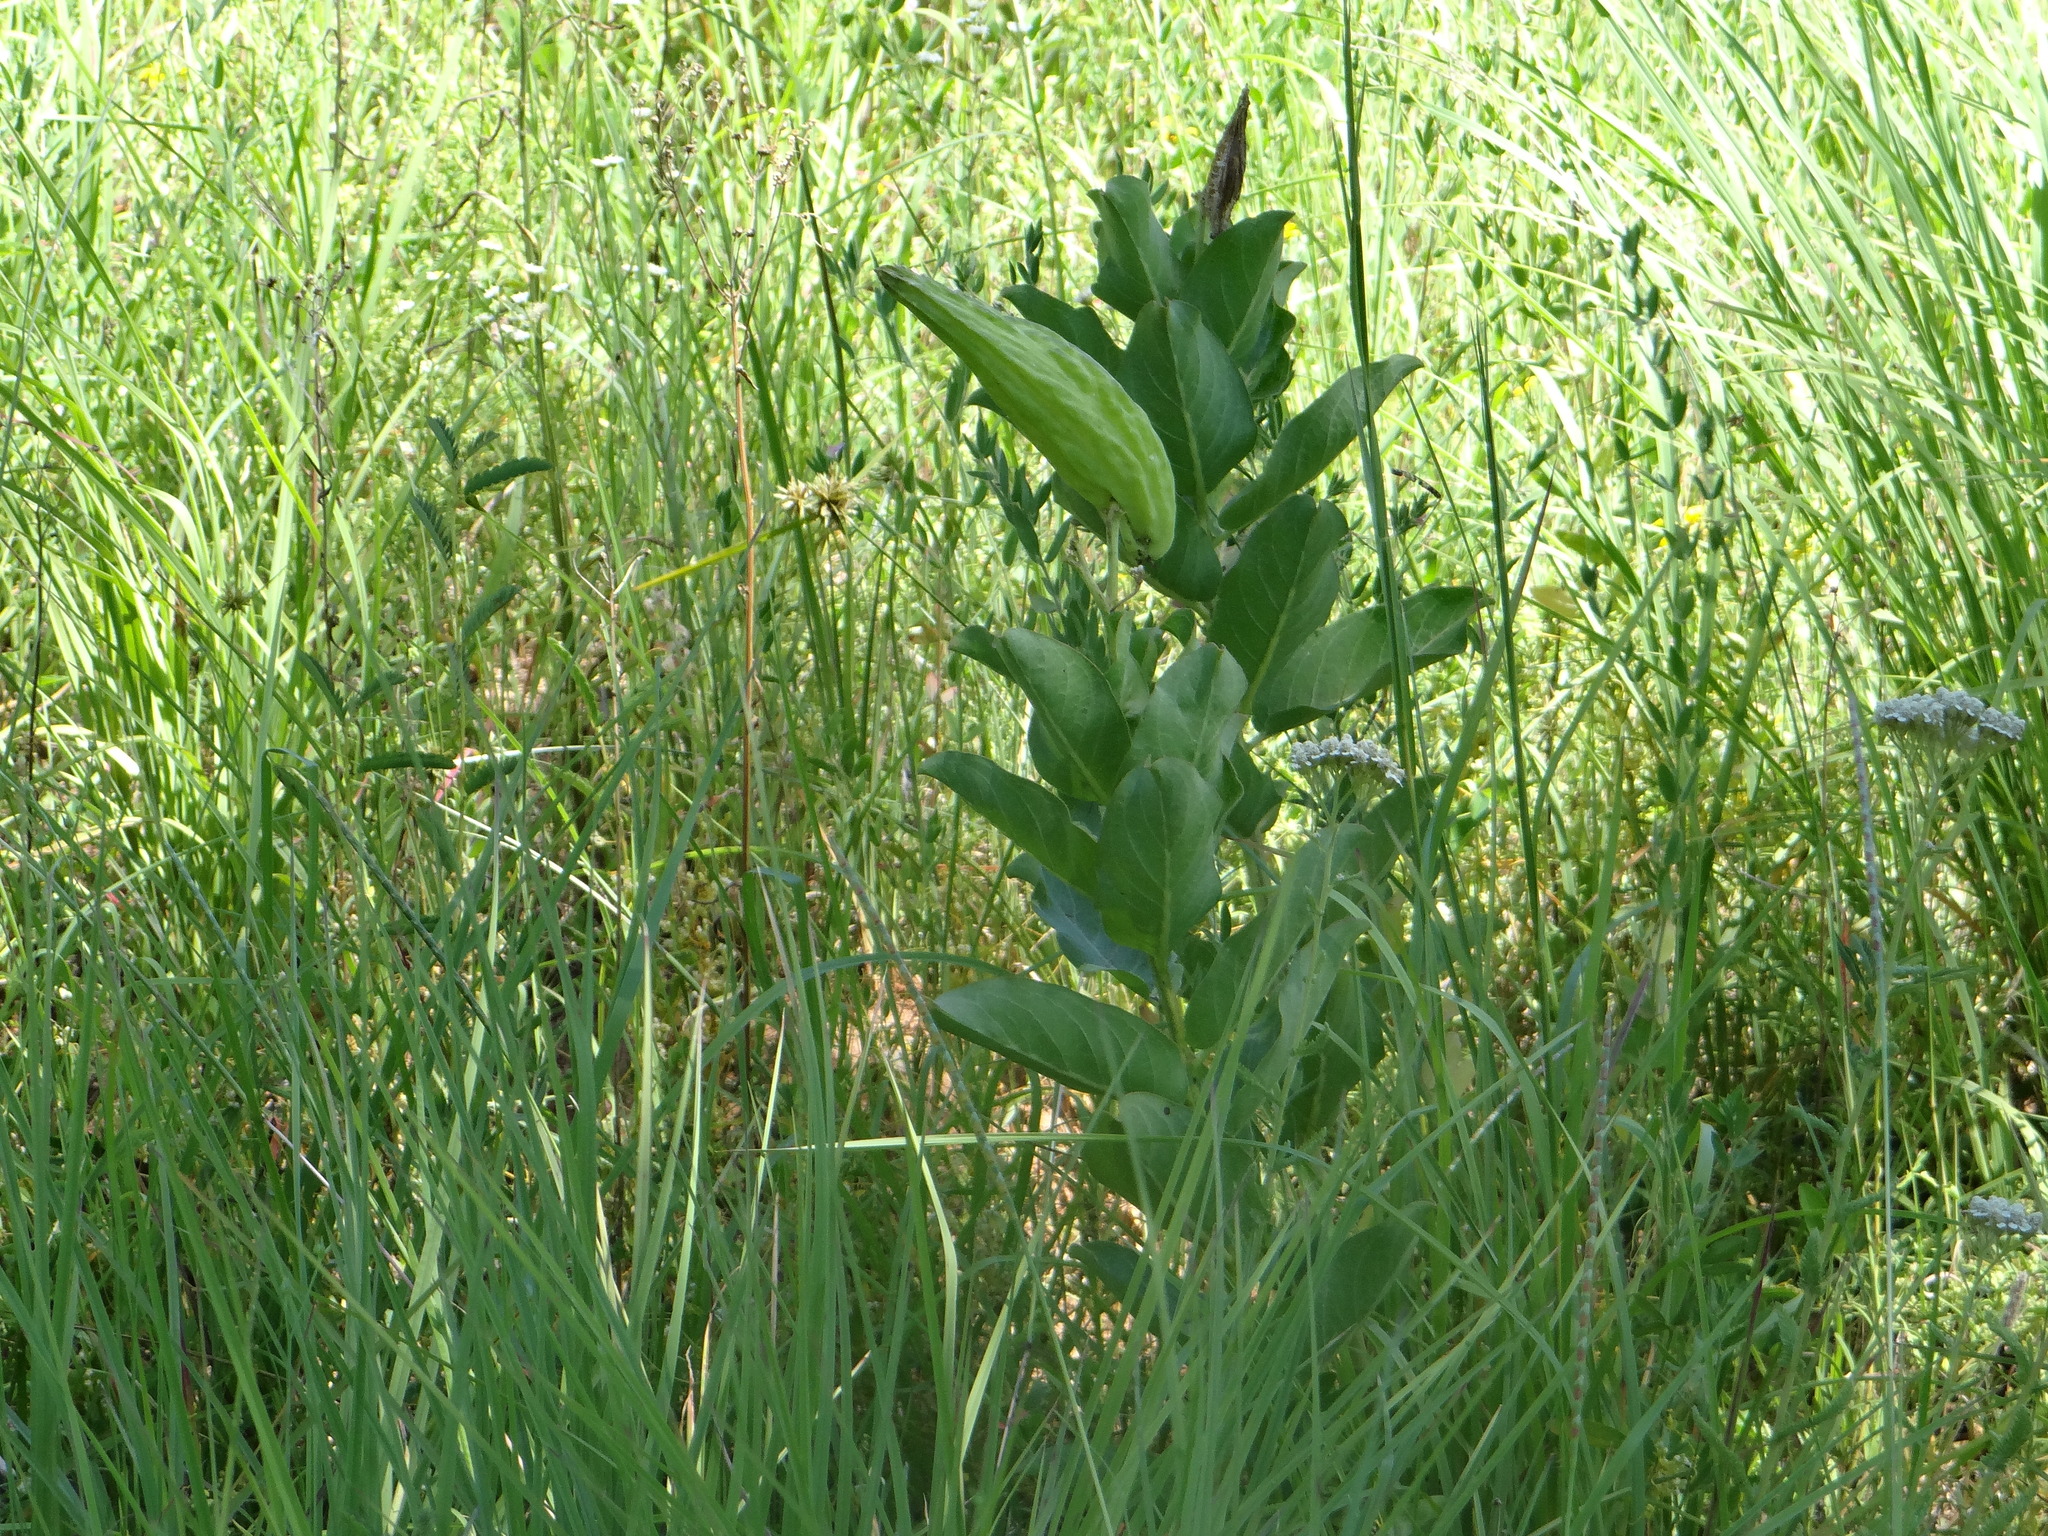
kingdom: Plantae
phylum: Tracheophyta
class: Magnoliopsida
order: Gentianales
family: Apocynaceae
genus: Asclepias
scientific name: Asclepias viridis
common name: Antelope-horns
